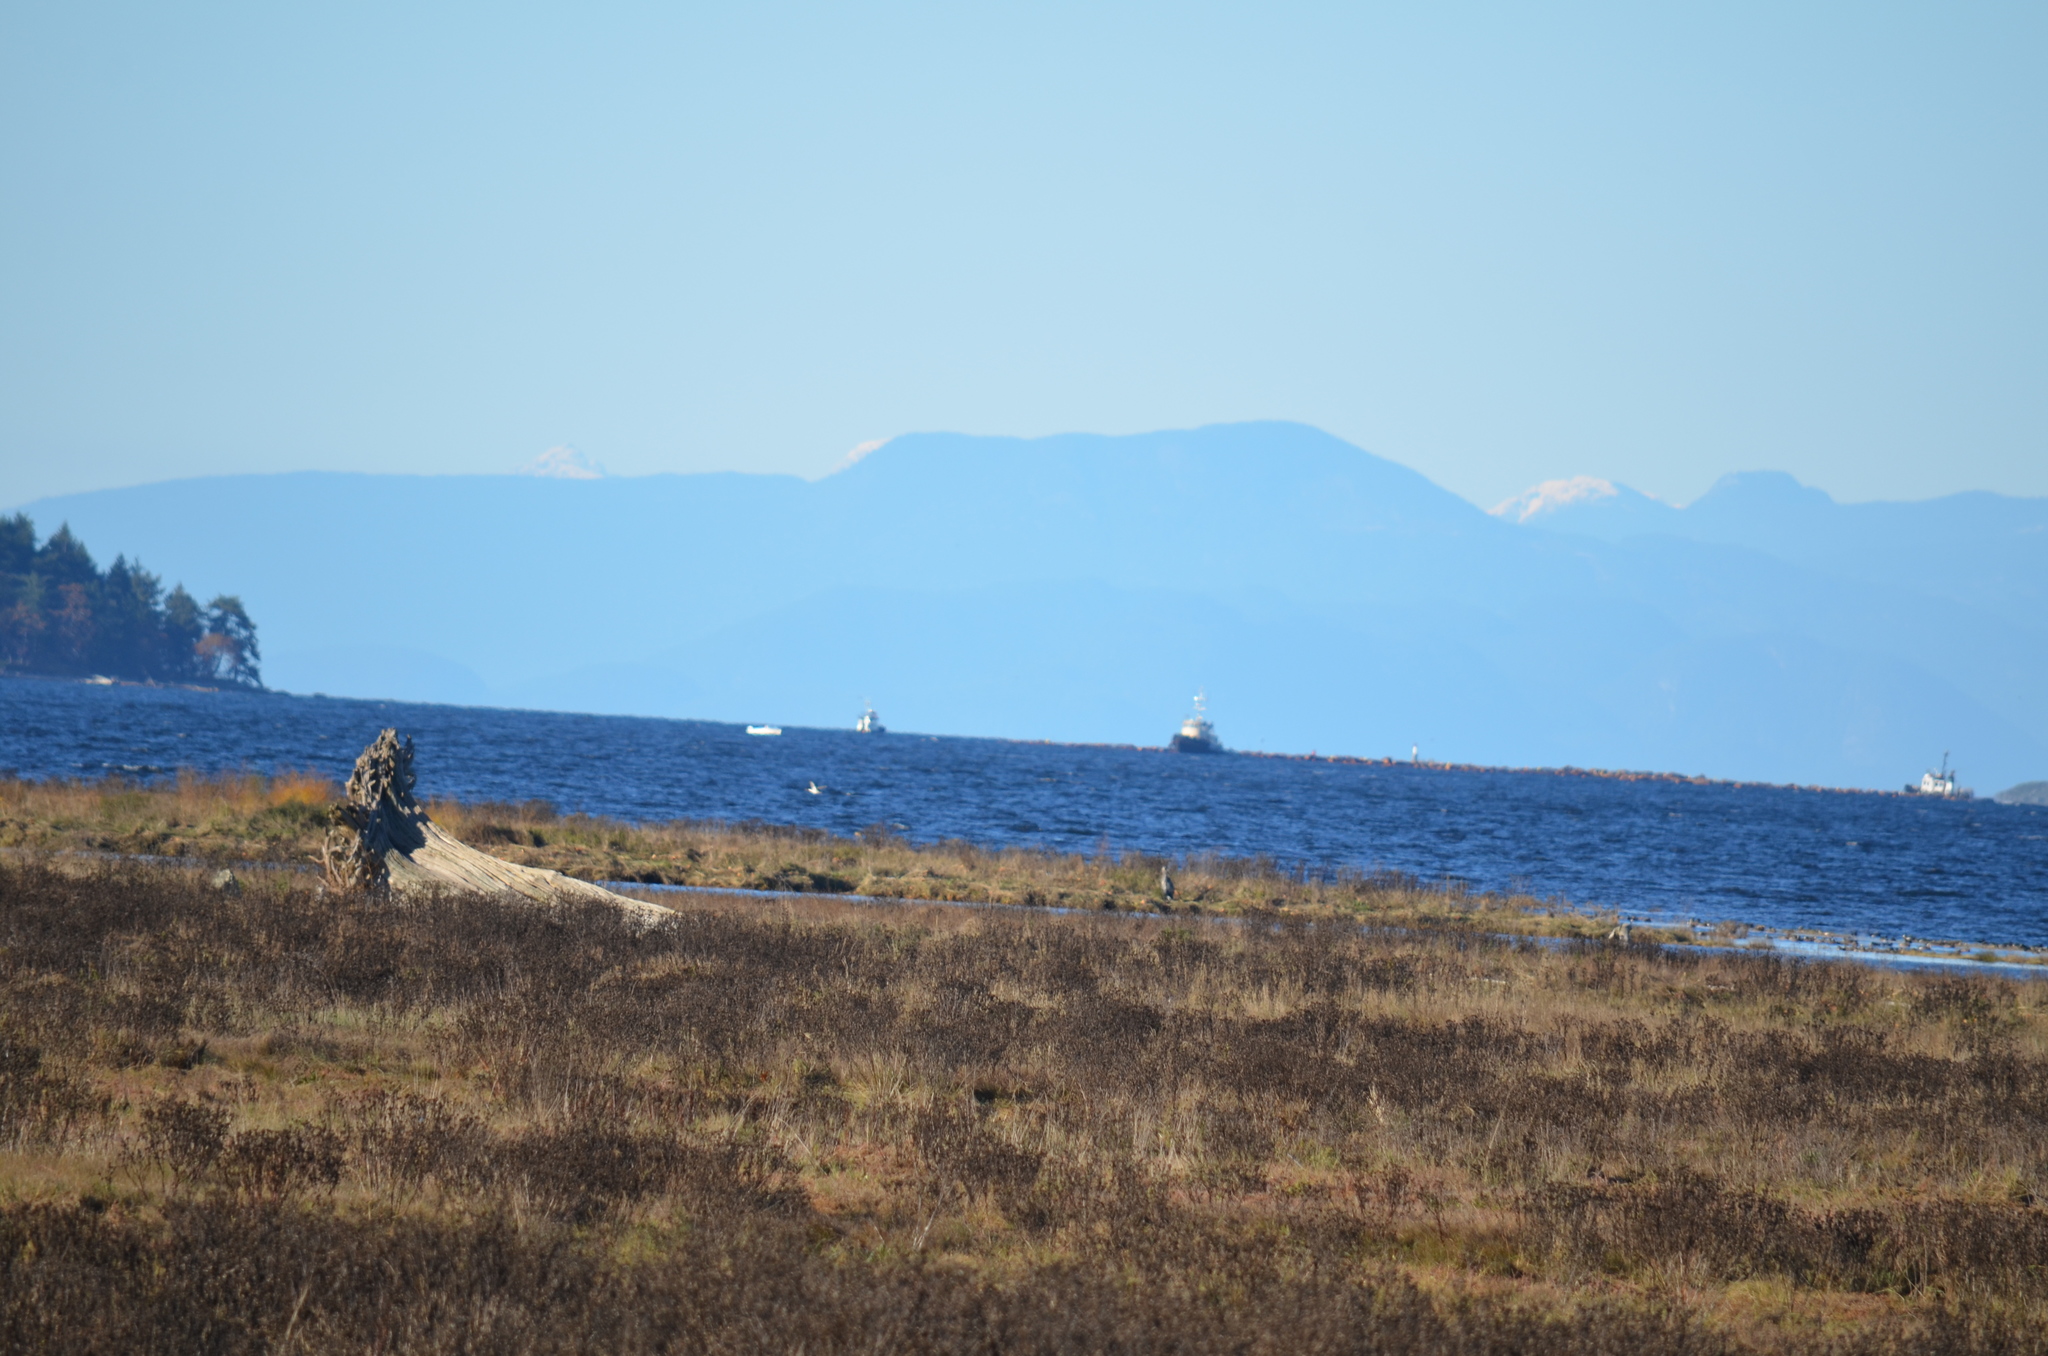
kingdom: Animalia
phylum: Chordata
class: Aves
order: Pelecaniformes
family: Ardeidae
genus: Ardea
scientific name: Ardea herodias
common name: Great blue heron
